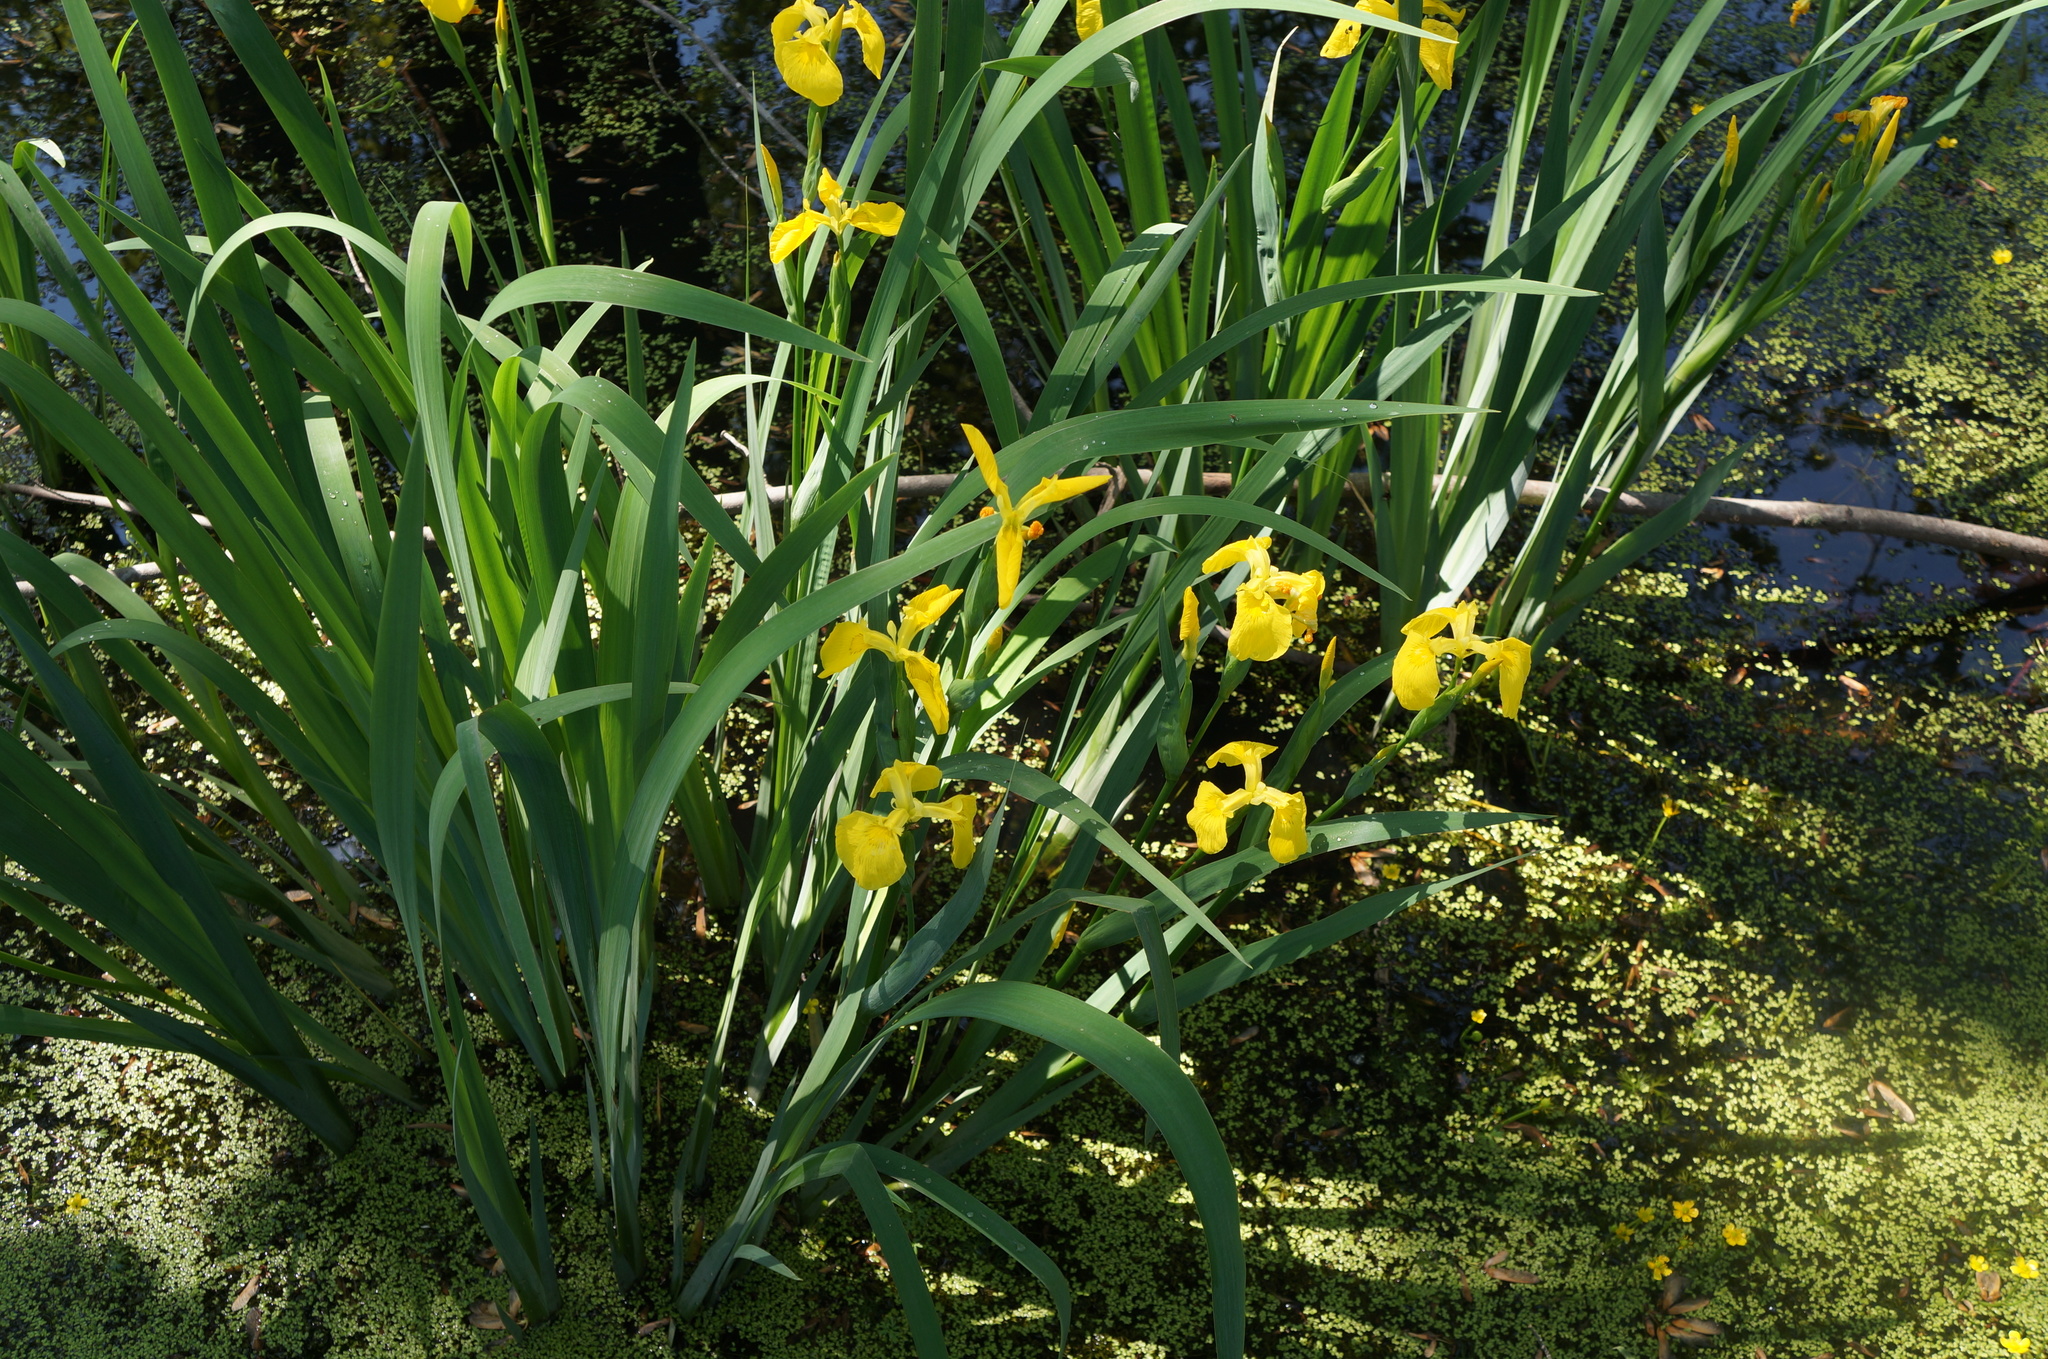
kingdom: Plantae
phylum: Tracheophyta
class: Liliopsida
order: Asparagales
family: Iridaceae
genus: Iris
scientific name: Iris pseudacorus
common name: Yellow flag
